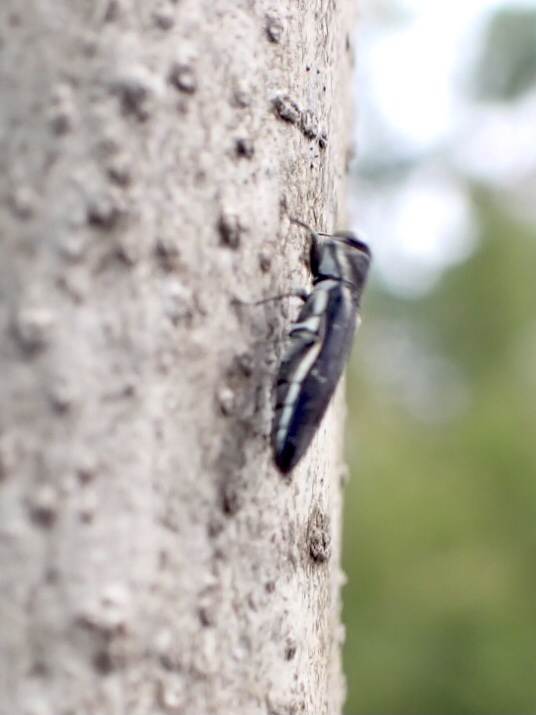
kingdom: Animalia
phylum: Arthropoda
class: Insecta
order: Coleoptera
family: Buprestidae
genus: Agrilus
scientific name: Agrilus bilineatus
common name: Two-lined chestnut borer
